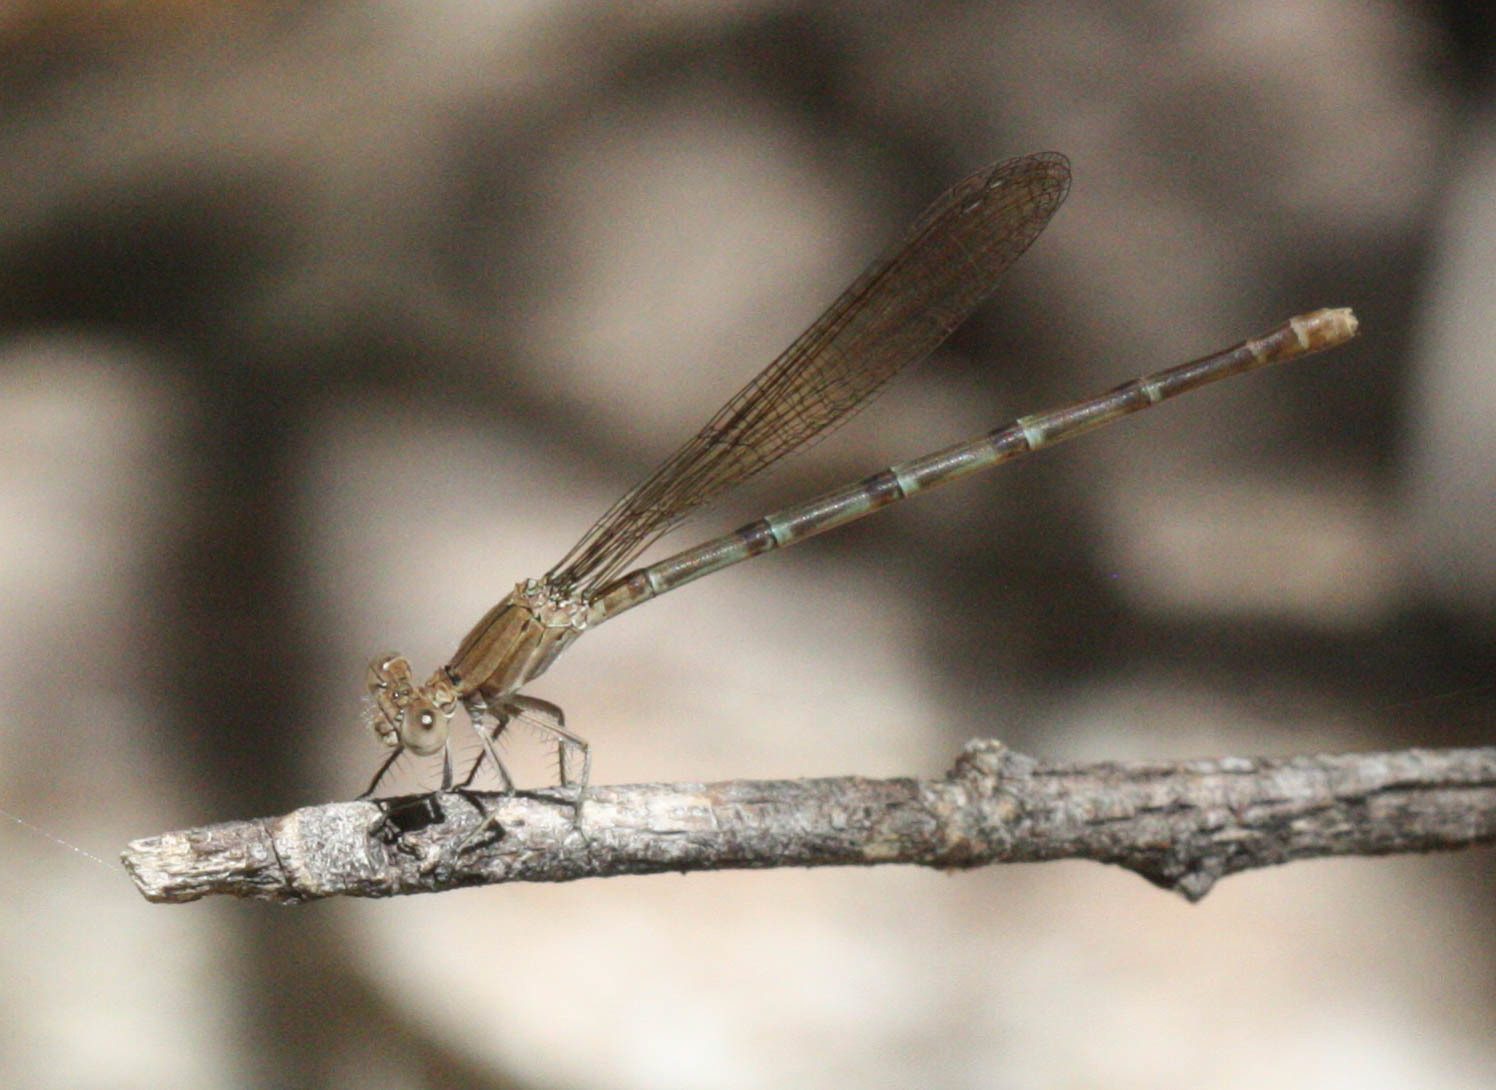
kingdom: Animalia
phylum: Arthropoda
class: Insecta
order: Odonata
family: Coenagrionidae
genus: Argia
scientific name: Argia sedula
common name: Blue-ringed dancer
